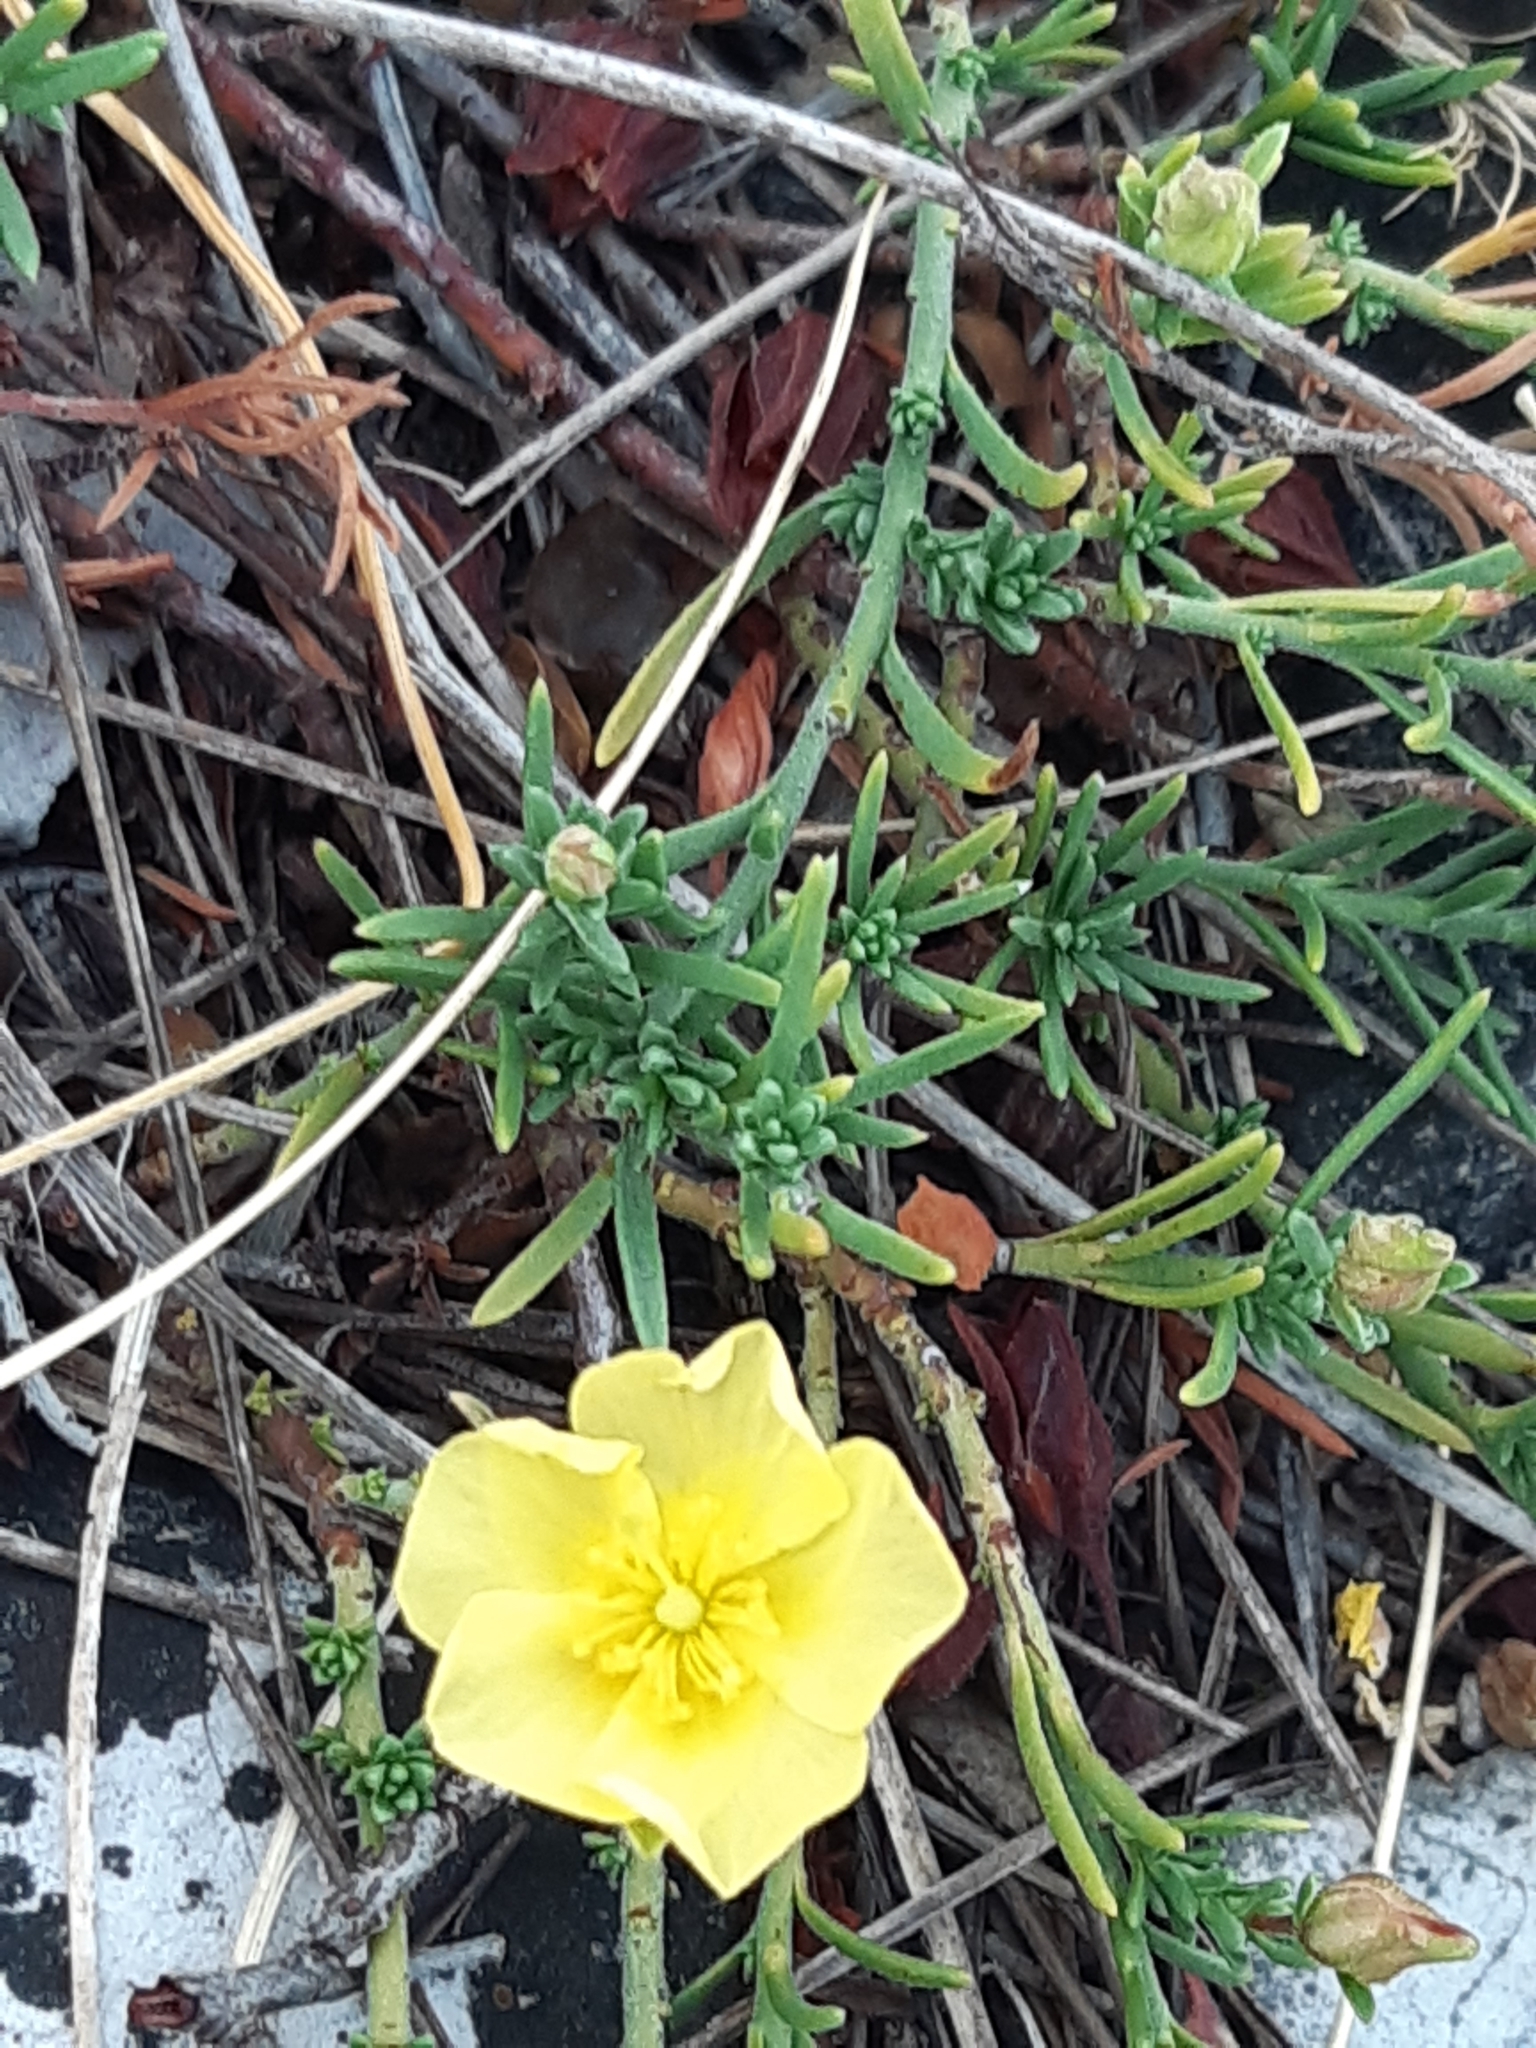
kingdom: Plantae
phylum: Tracheophyta
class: Magnoliopsida
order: Malvales
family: Cistaceae
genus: Fumana
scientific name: Fumana procumbens
